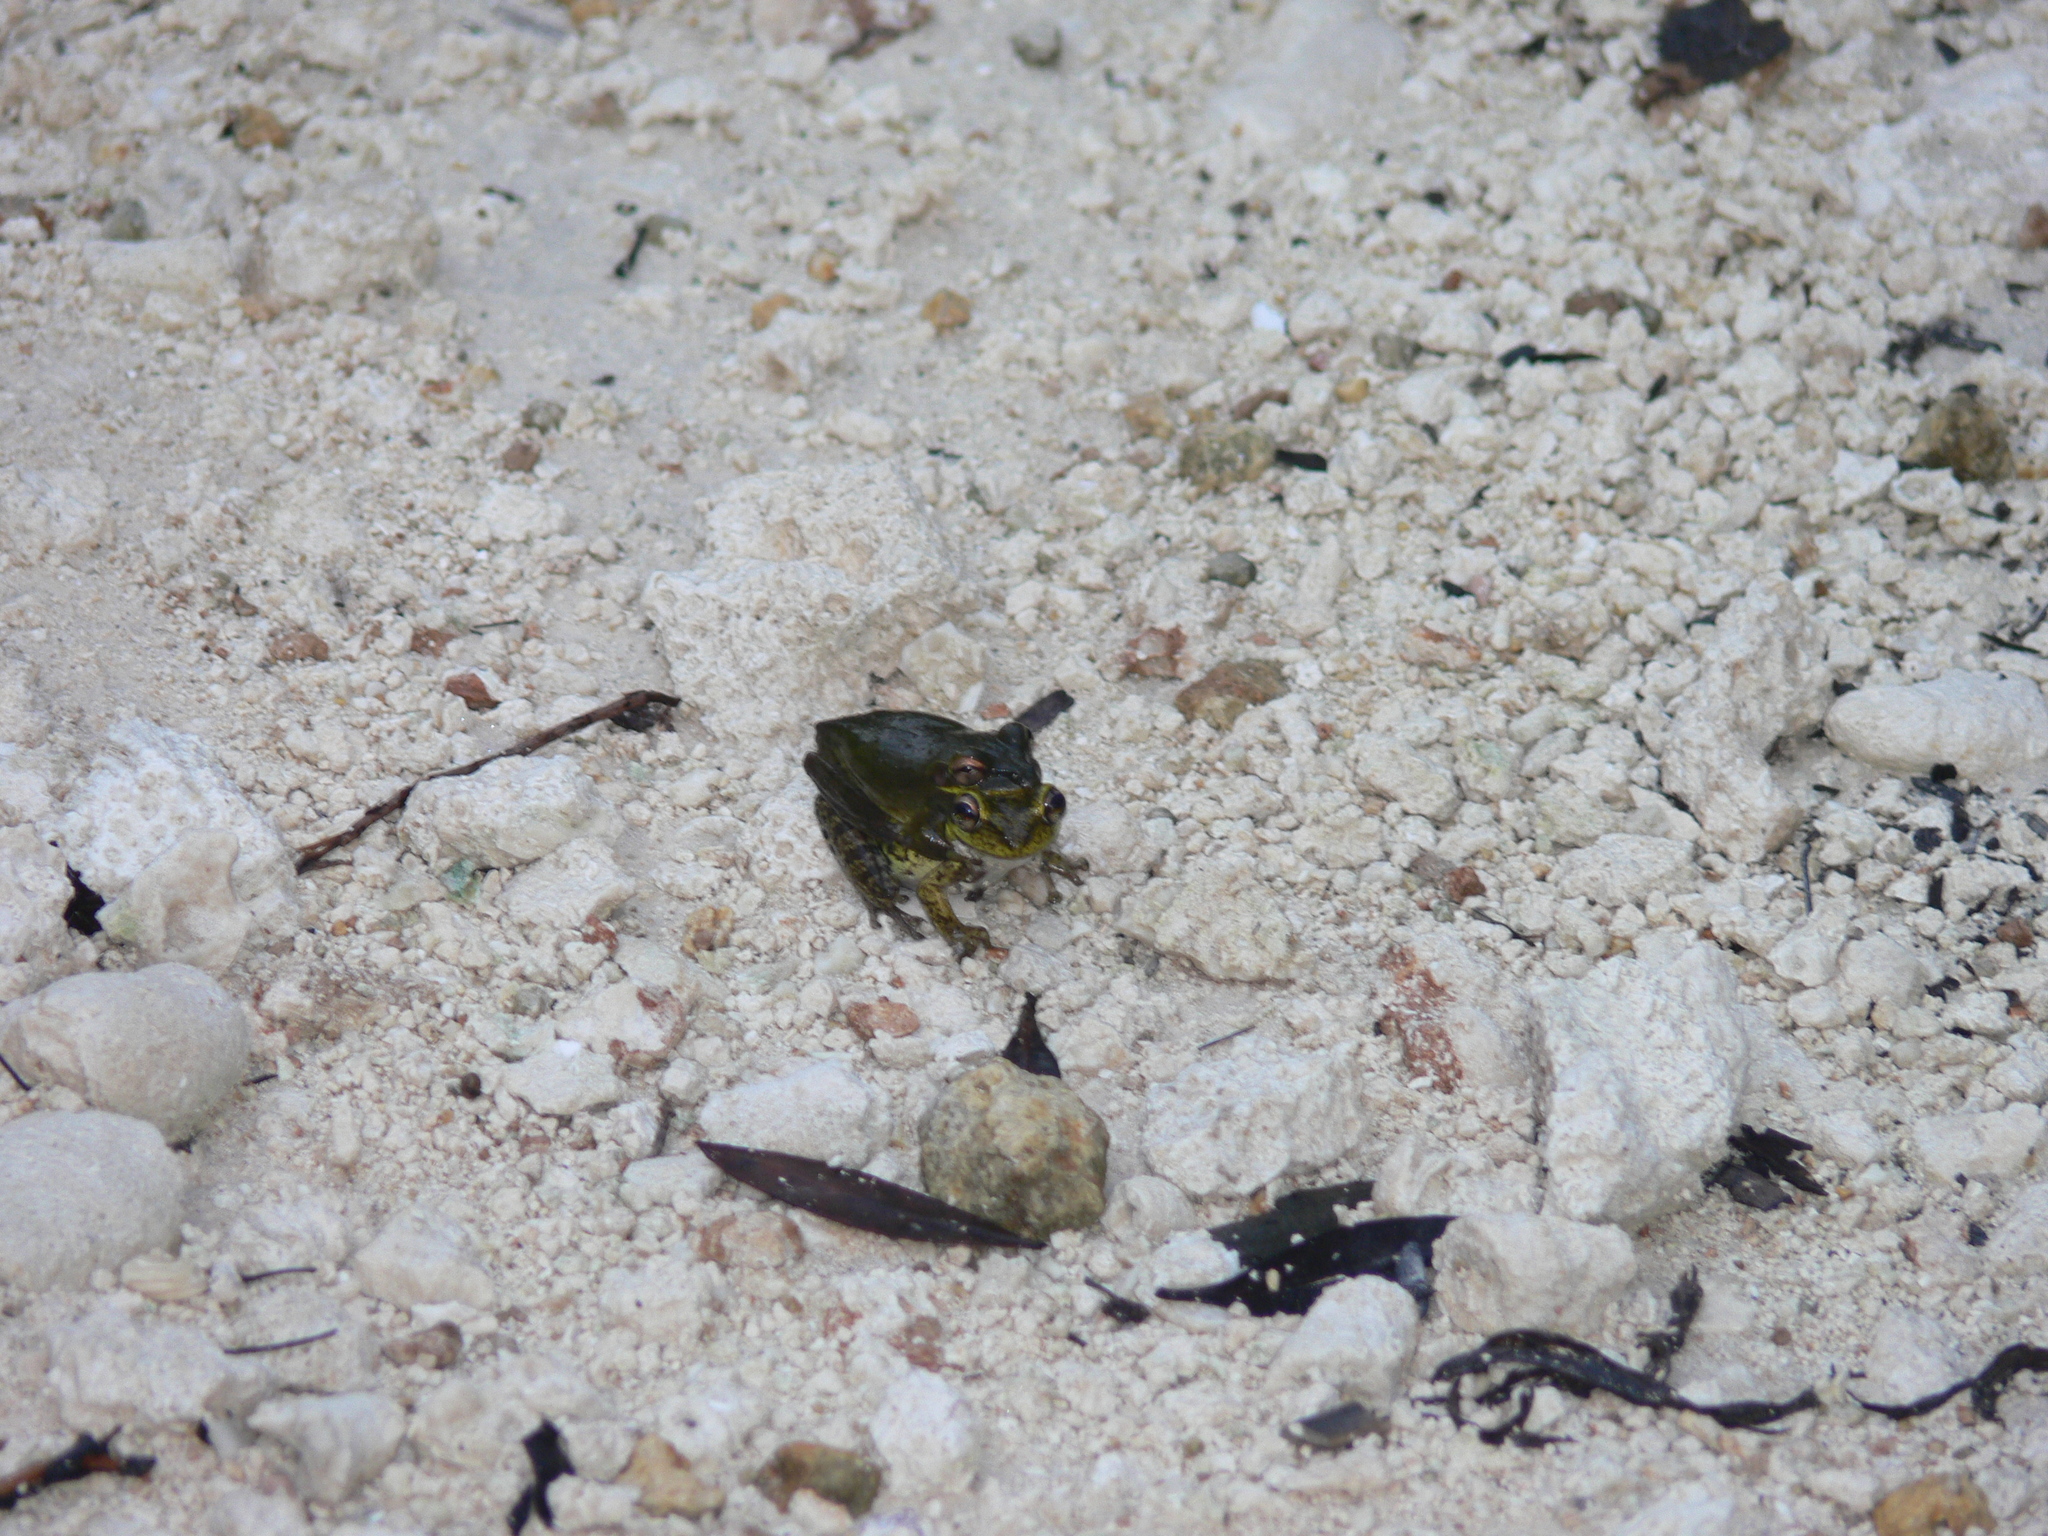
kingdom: Animalia
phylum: Chordata
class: Amphibia
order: Anura
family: Hylidae
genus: Osteopilus
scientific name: Osteopilus septentrionalis
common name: Cuban treefrog
